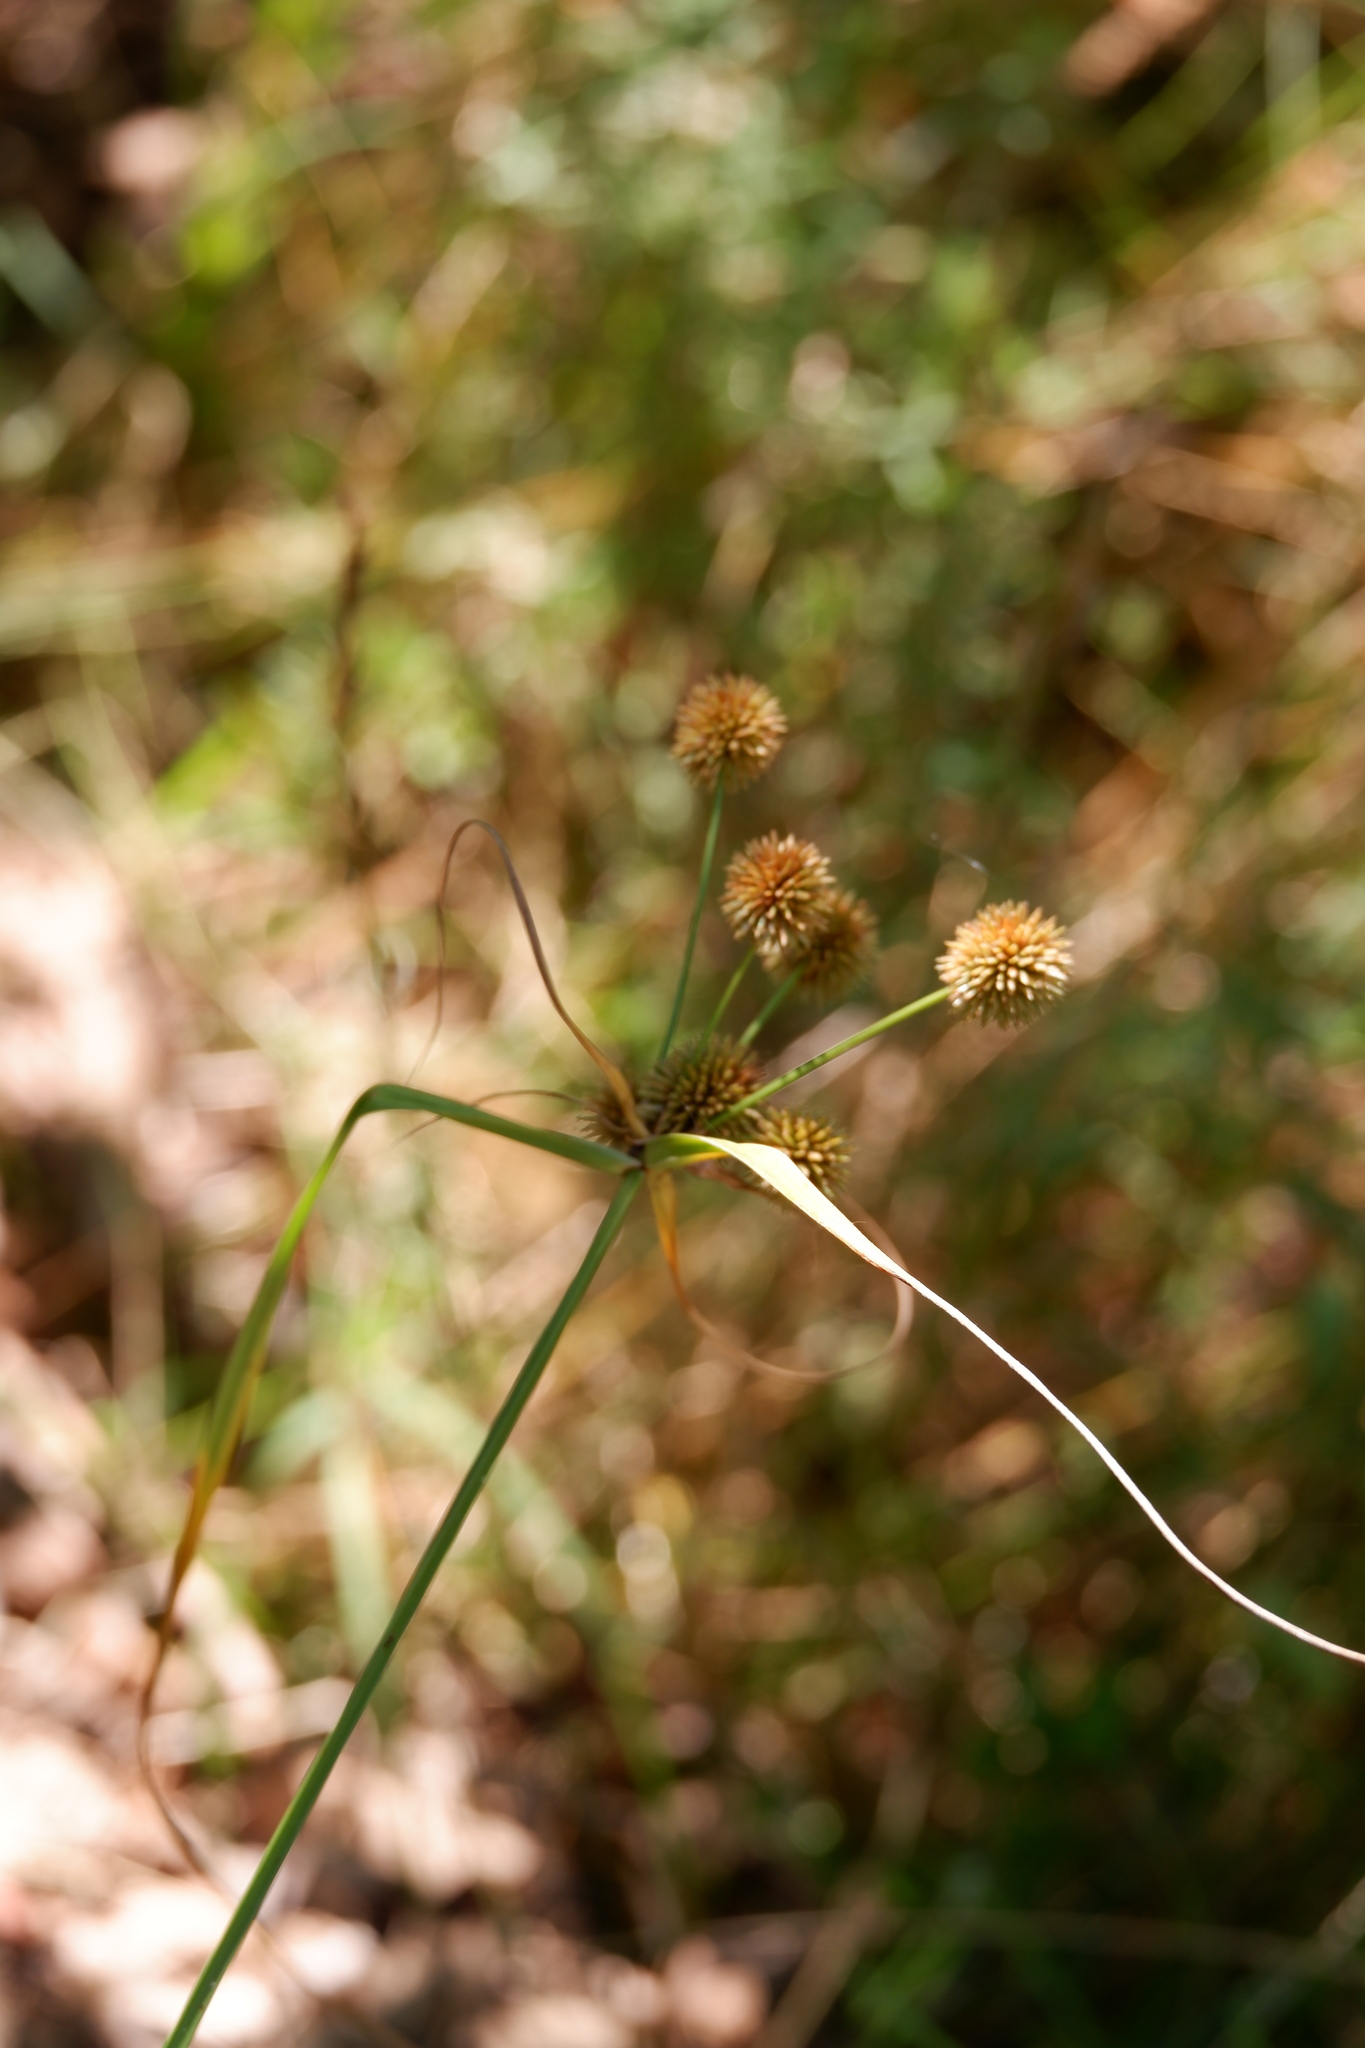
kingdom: Plantae
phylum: Tracheophyta
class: Liliopsida
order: Poales
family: Cyperaceae
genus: Cyperus
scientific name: Cyperus echinatus
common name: Teasel sedge
